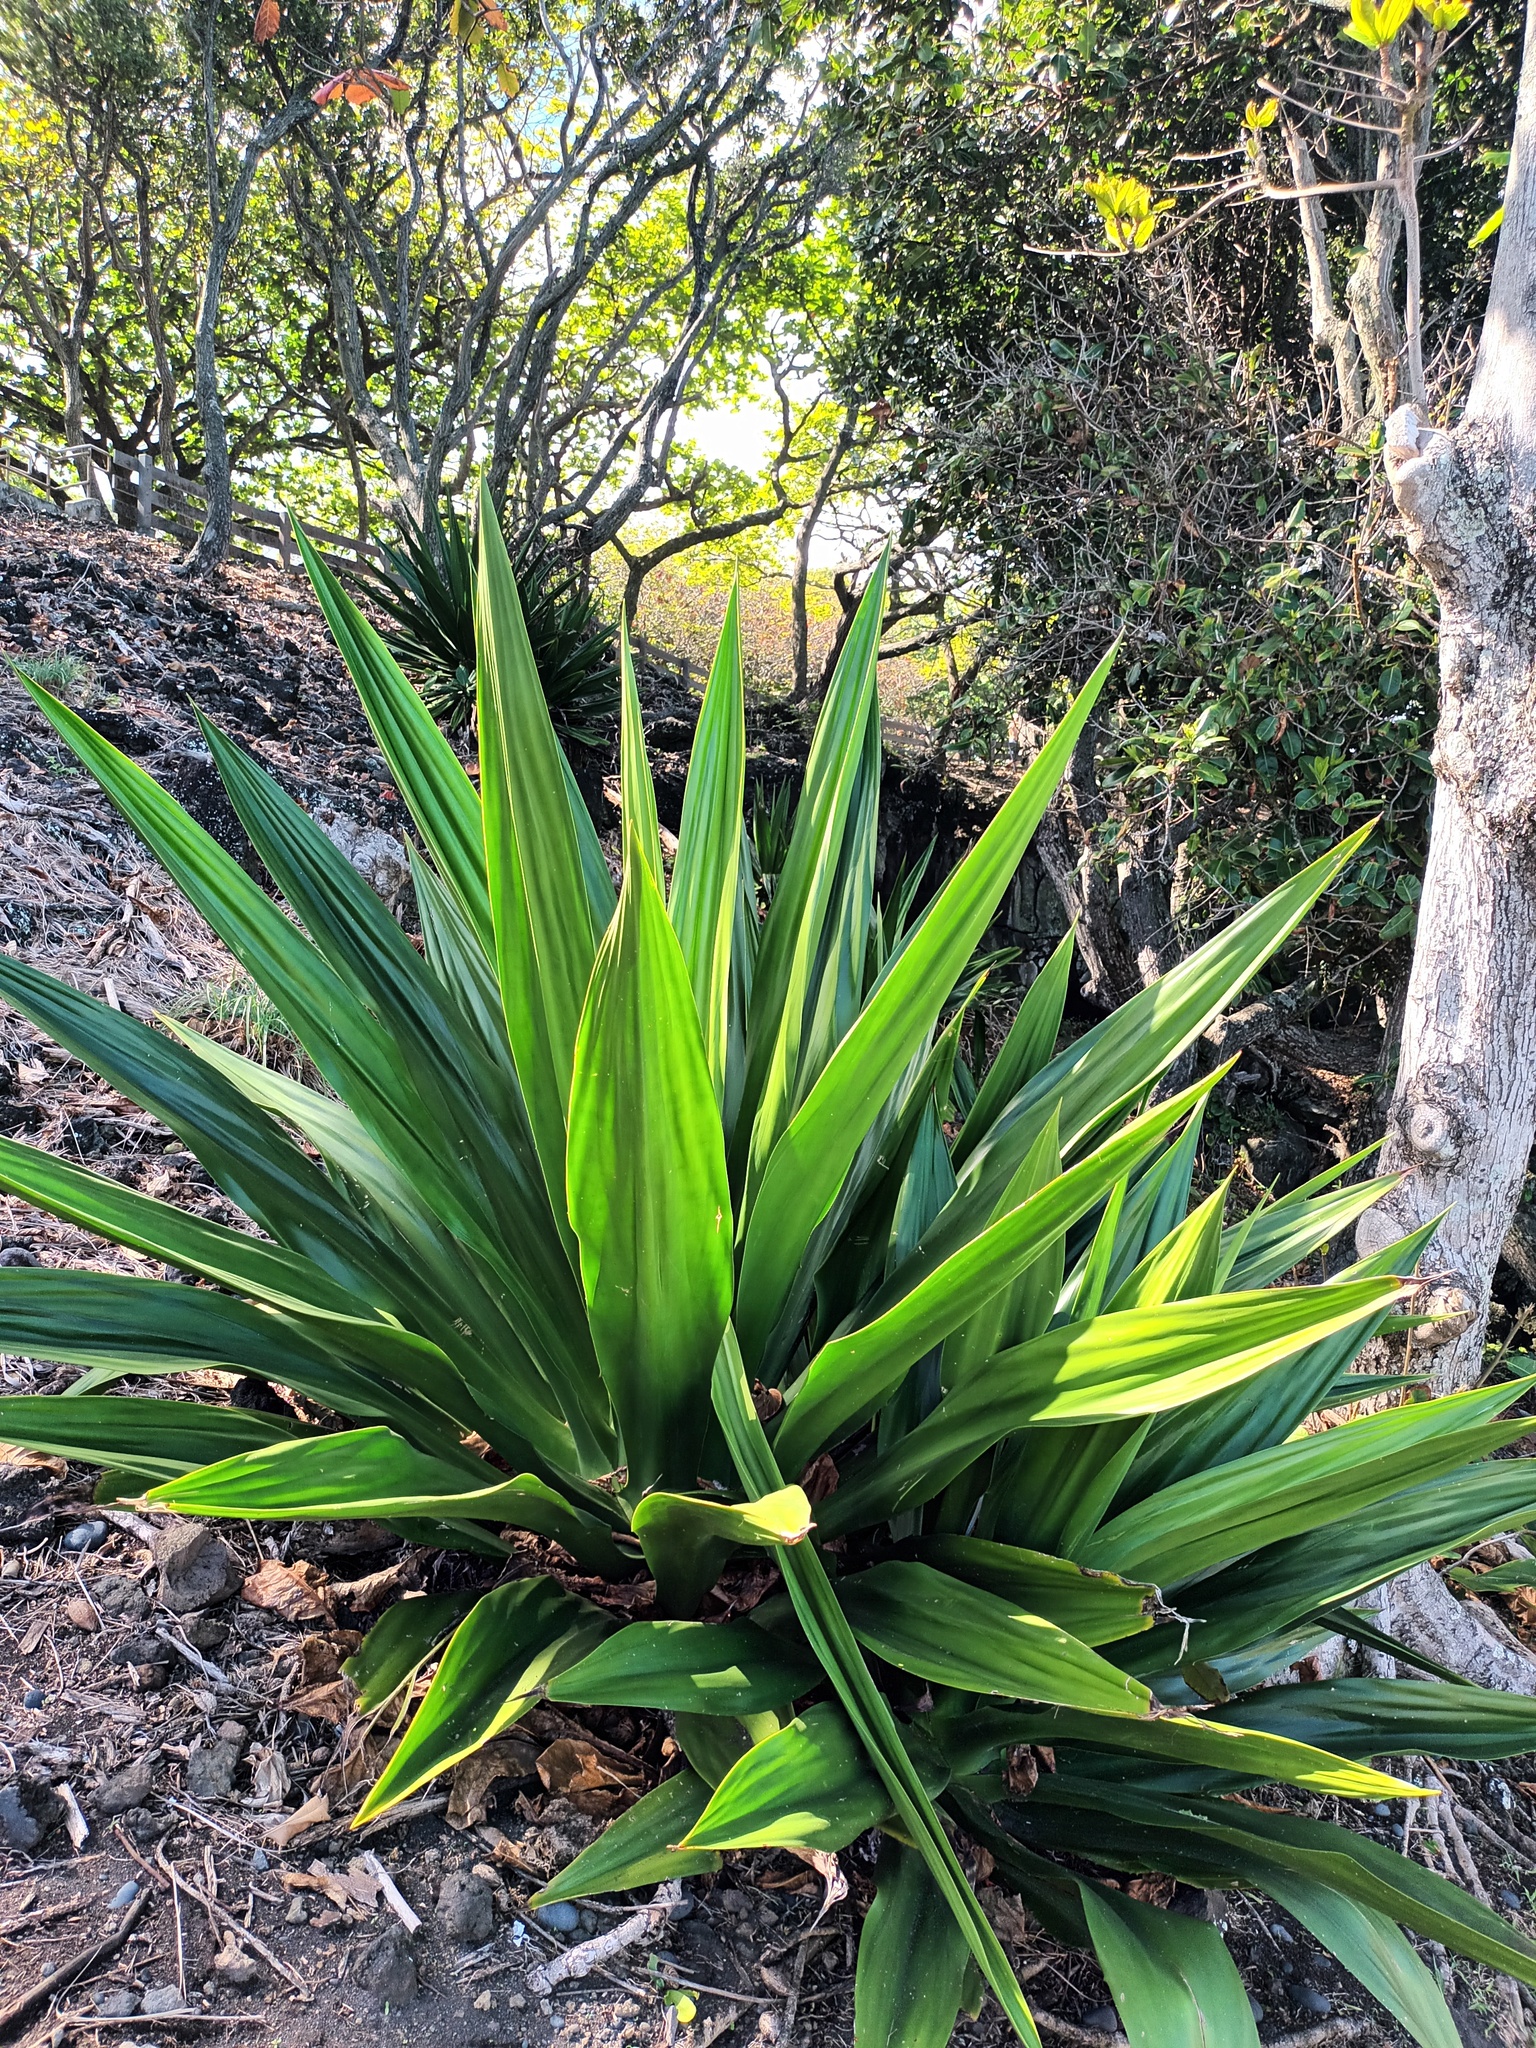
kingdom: Plantae
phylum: Tracheophyta
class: Liliopsida
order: Asparagales
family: Asparagaceae
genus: Furcraea
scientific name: Furcraea foetida
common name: Mauritius hemp
